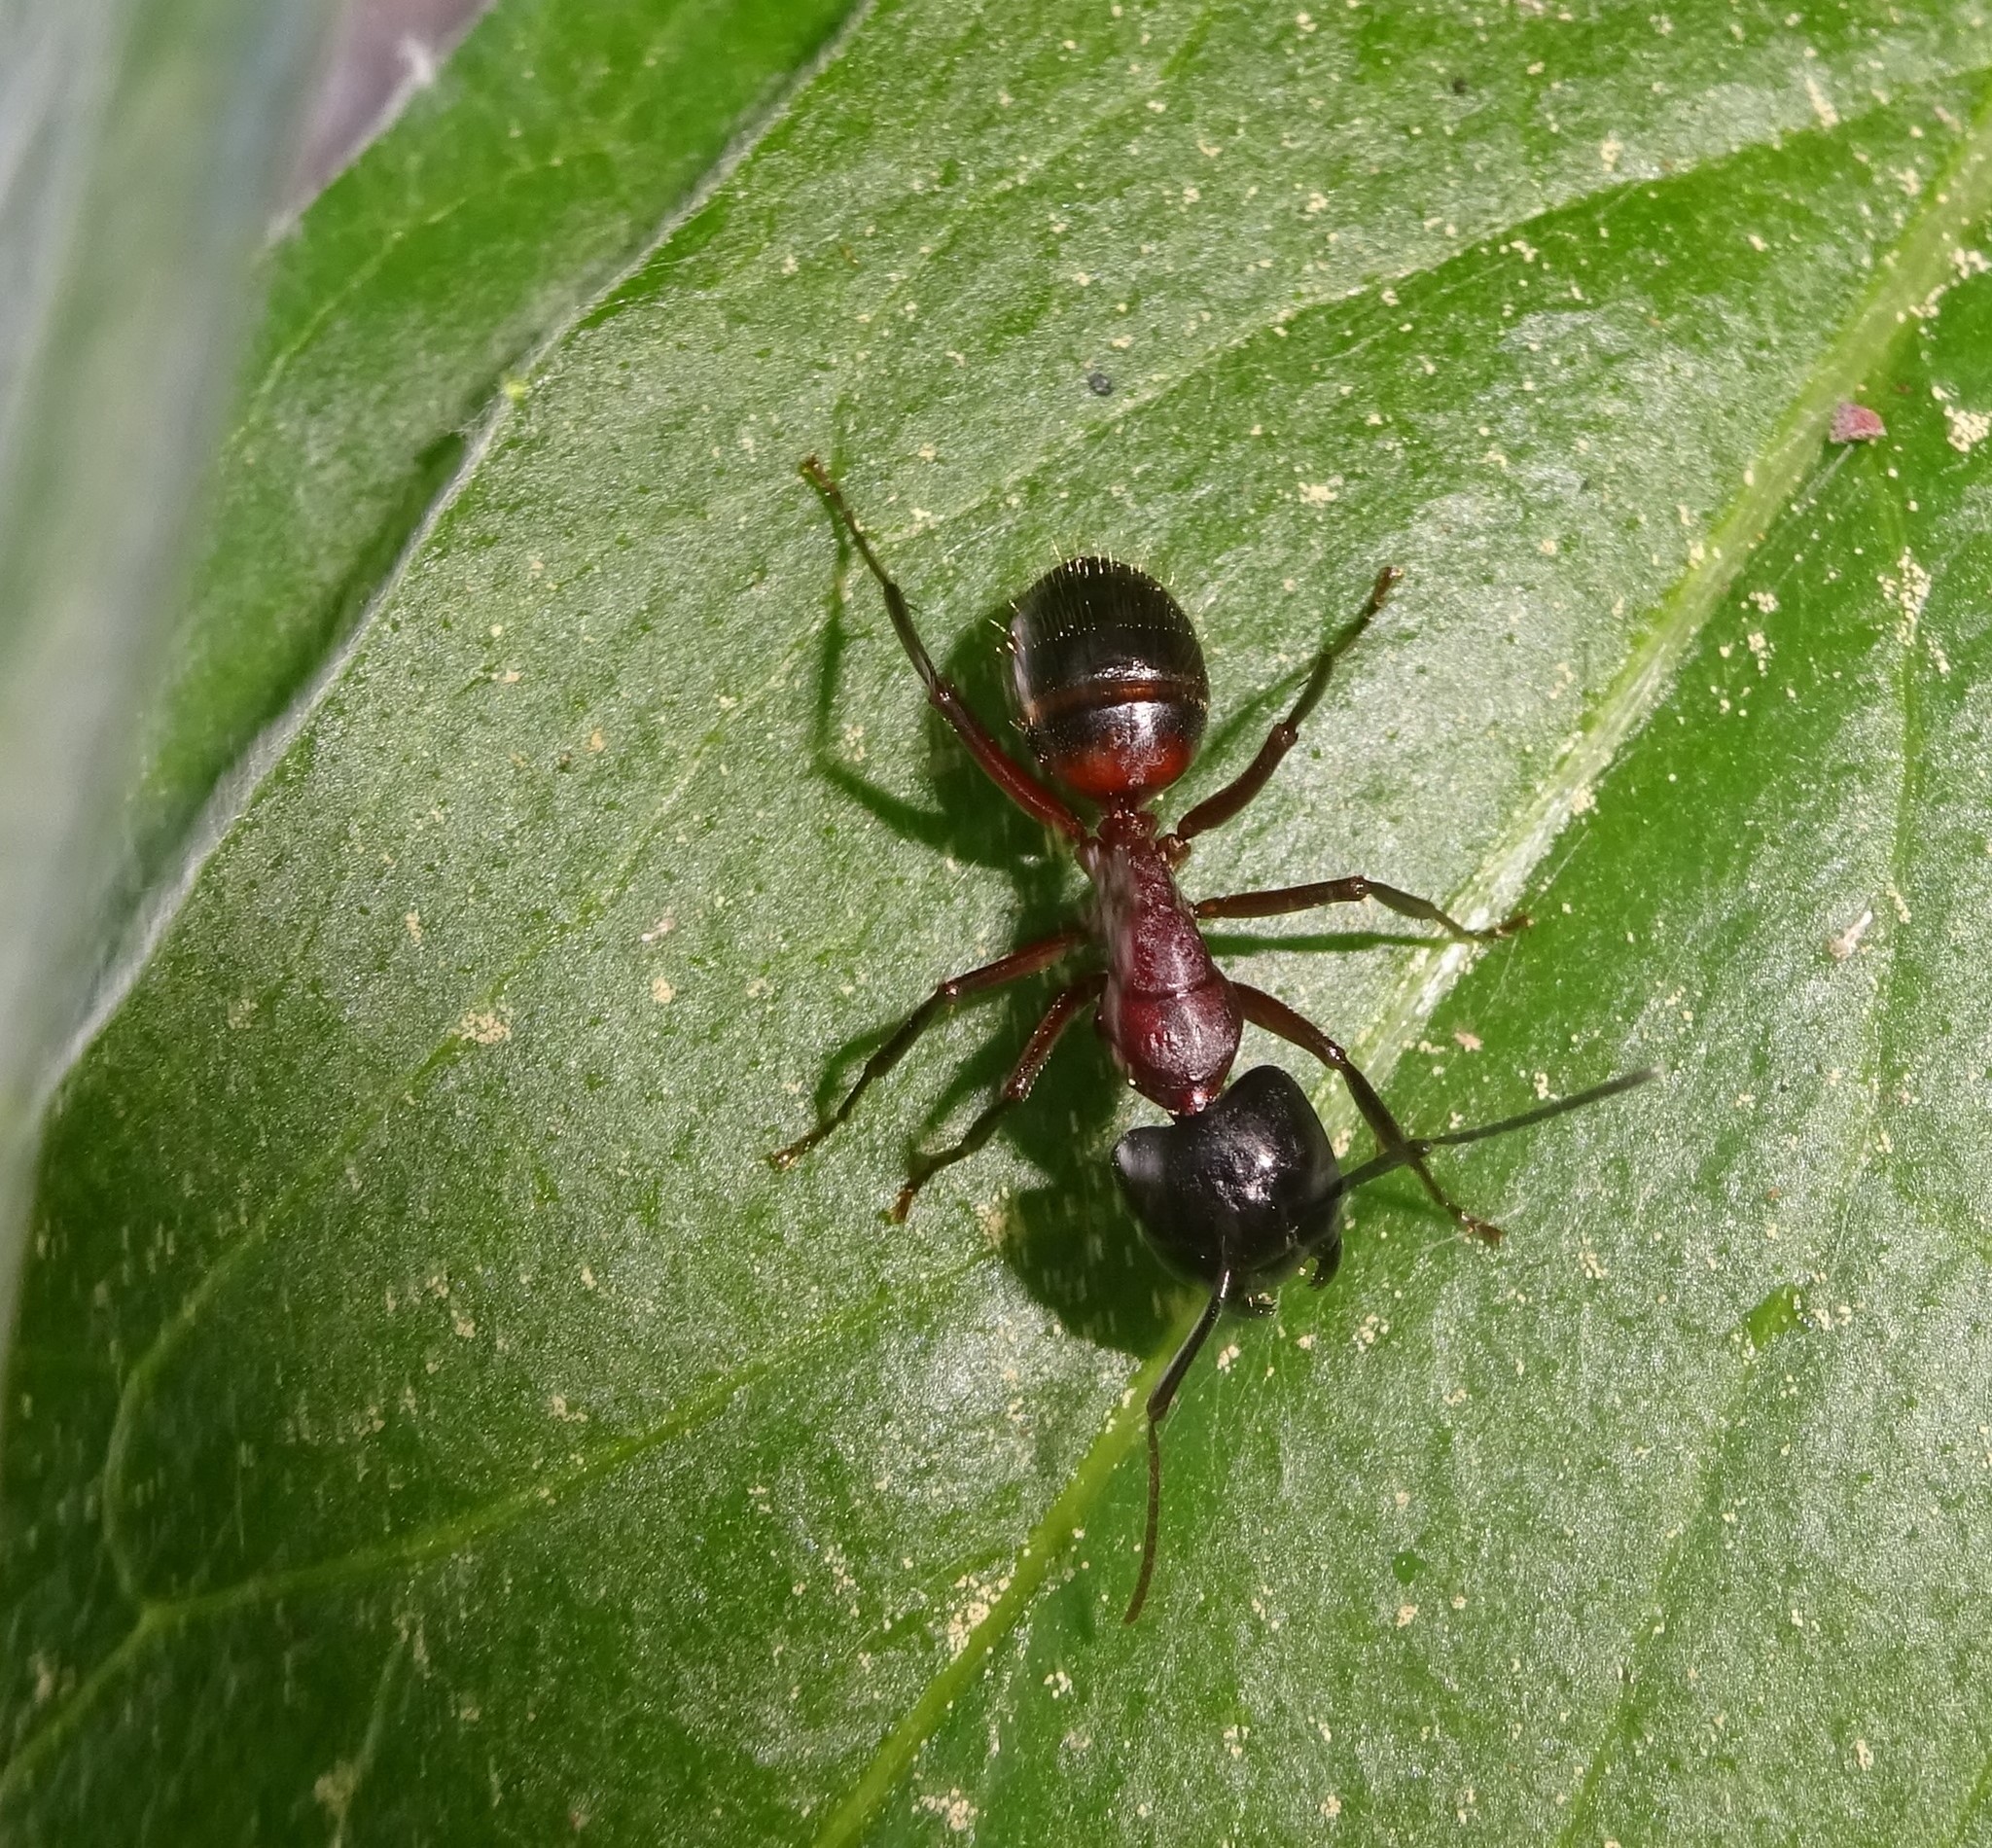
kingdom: Animalia
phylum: Arthropoda
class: Insecta
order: Hymenoptera
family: Formicidae
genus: Camponotus
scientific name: Camponotus ligniperdus
